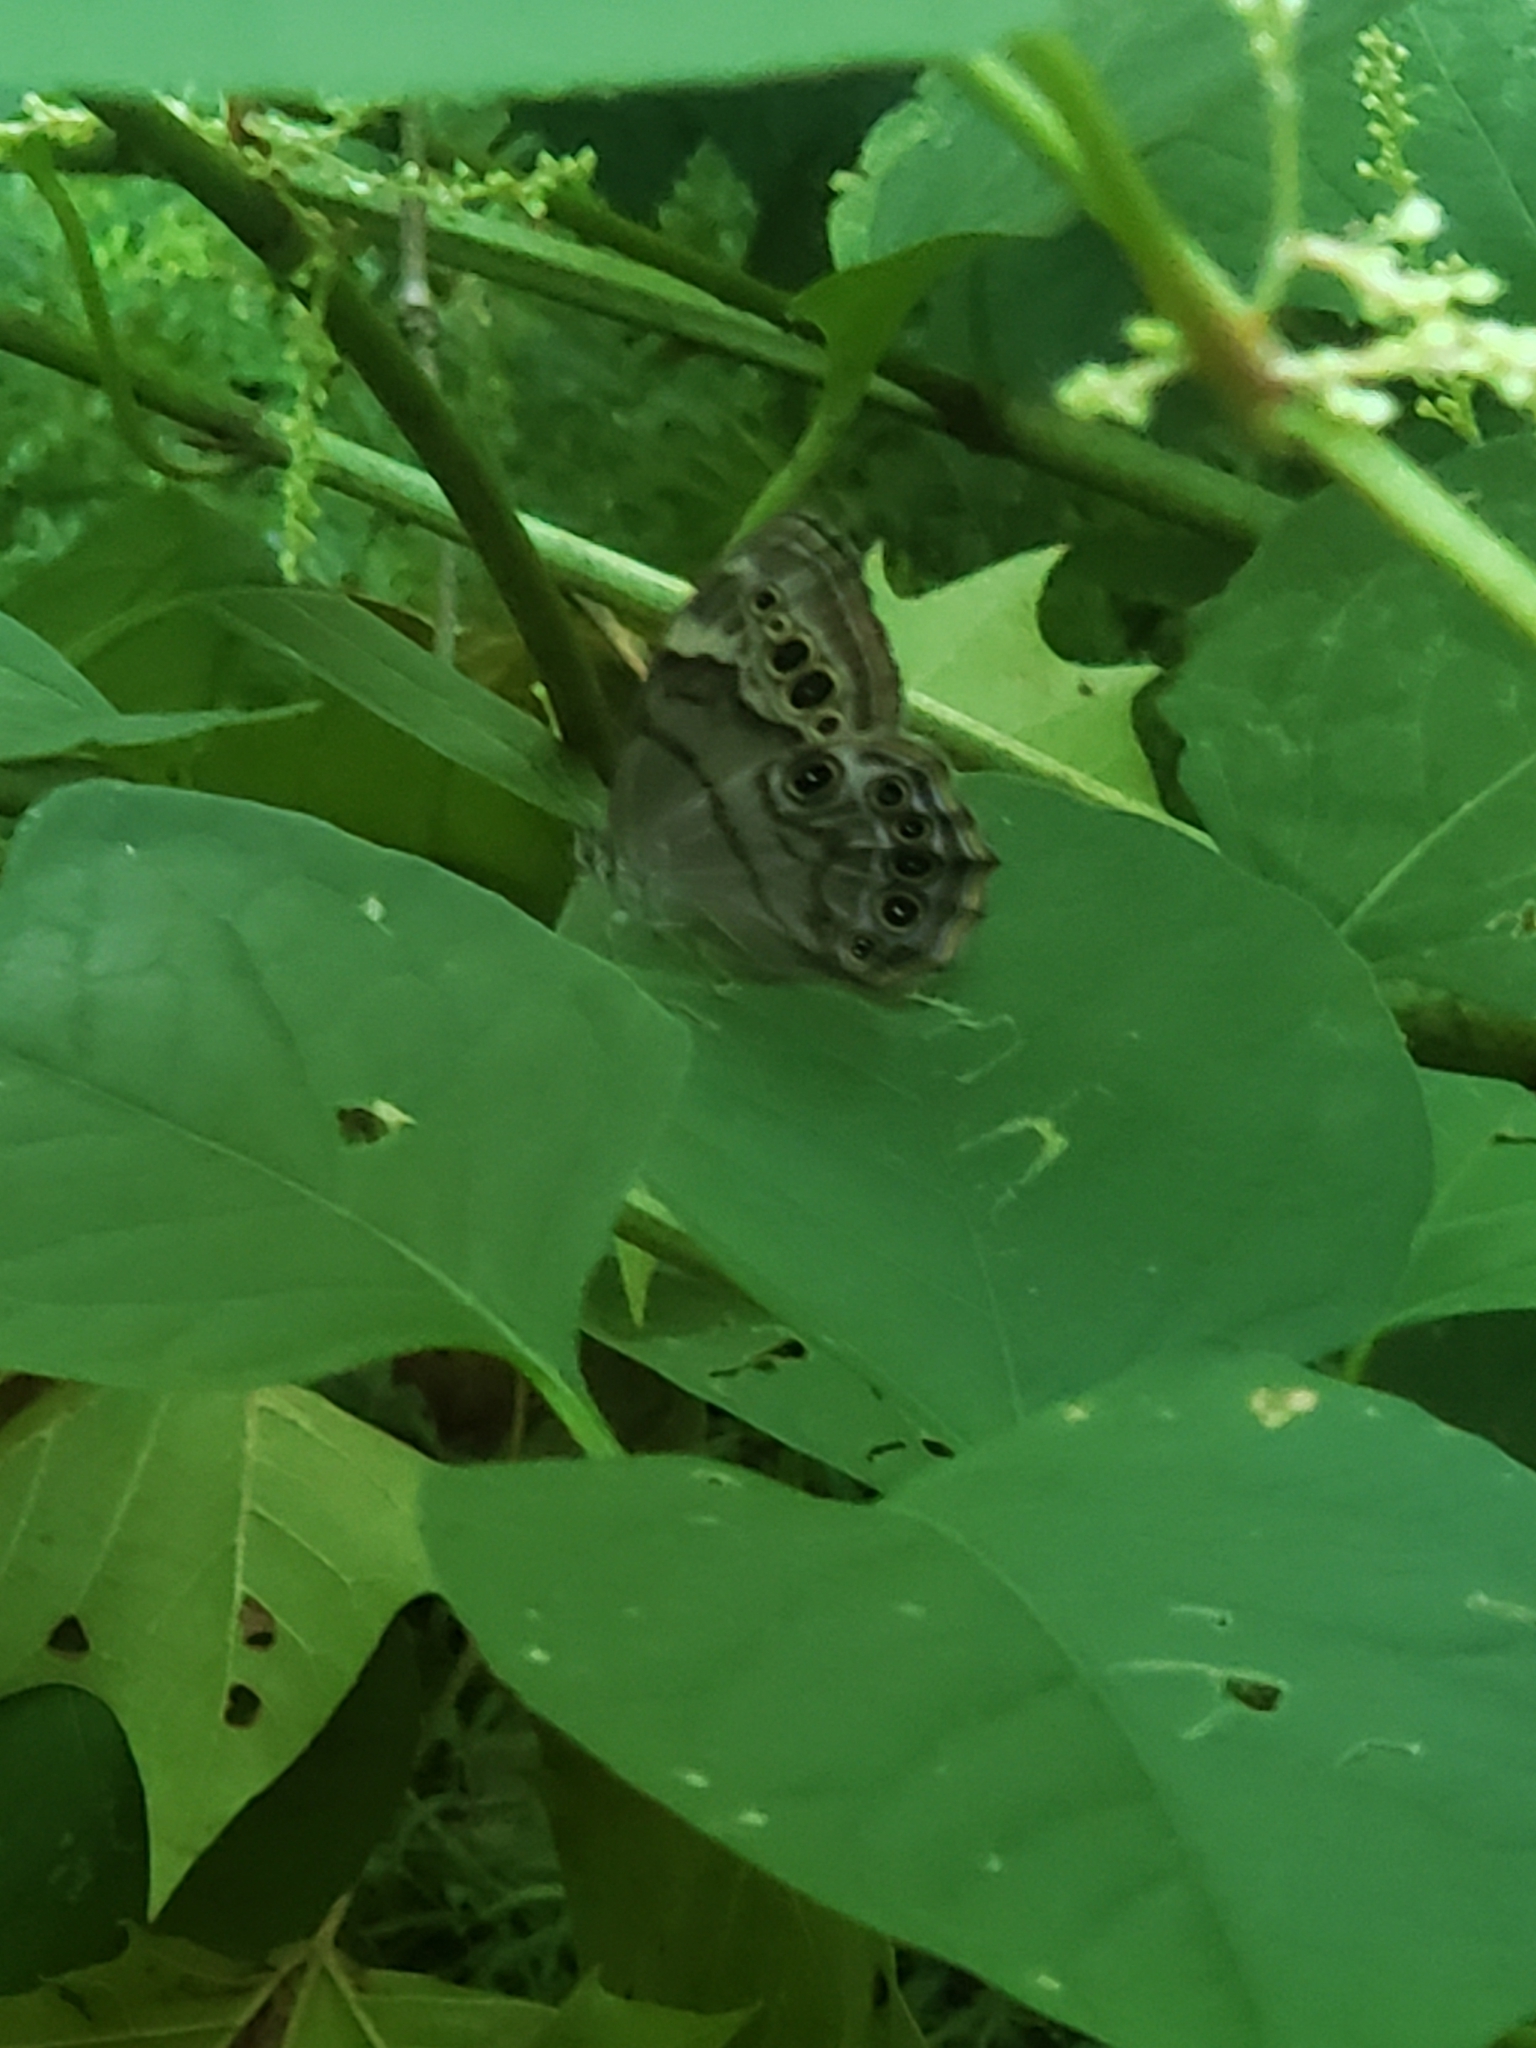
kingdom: Animalia
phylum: Arthropoda
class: Insecta
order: Lepidoptera
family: Nymphalidae
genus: Lethe
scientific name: Lethe anthedon
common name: Northern pearly-eye
